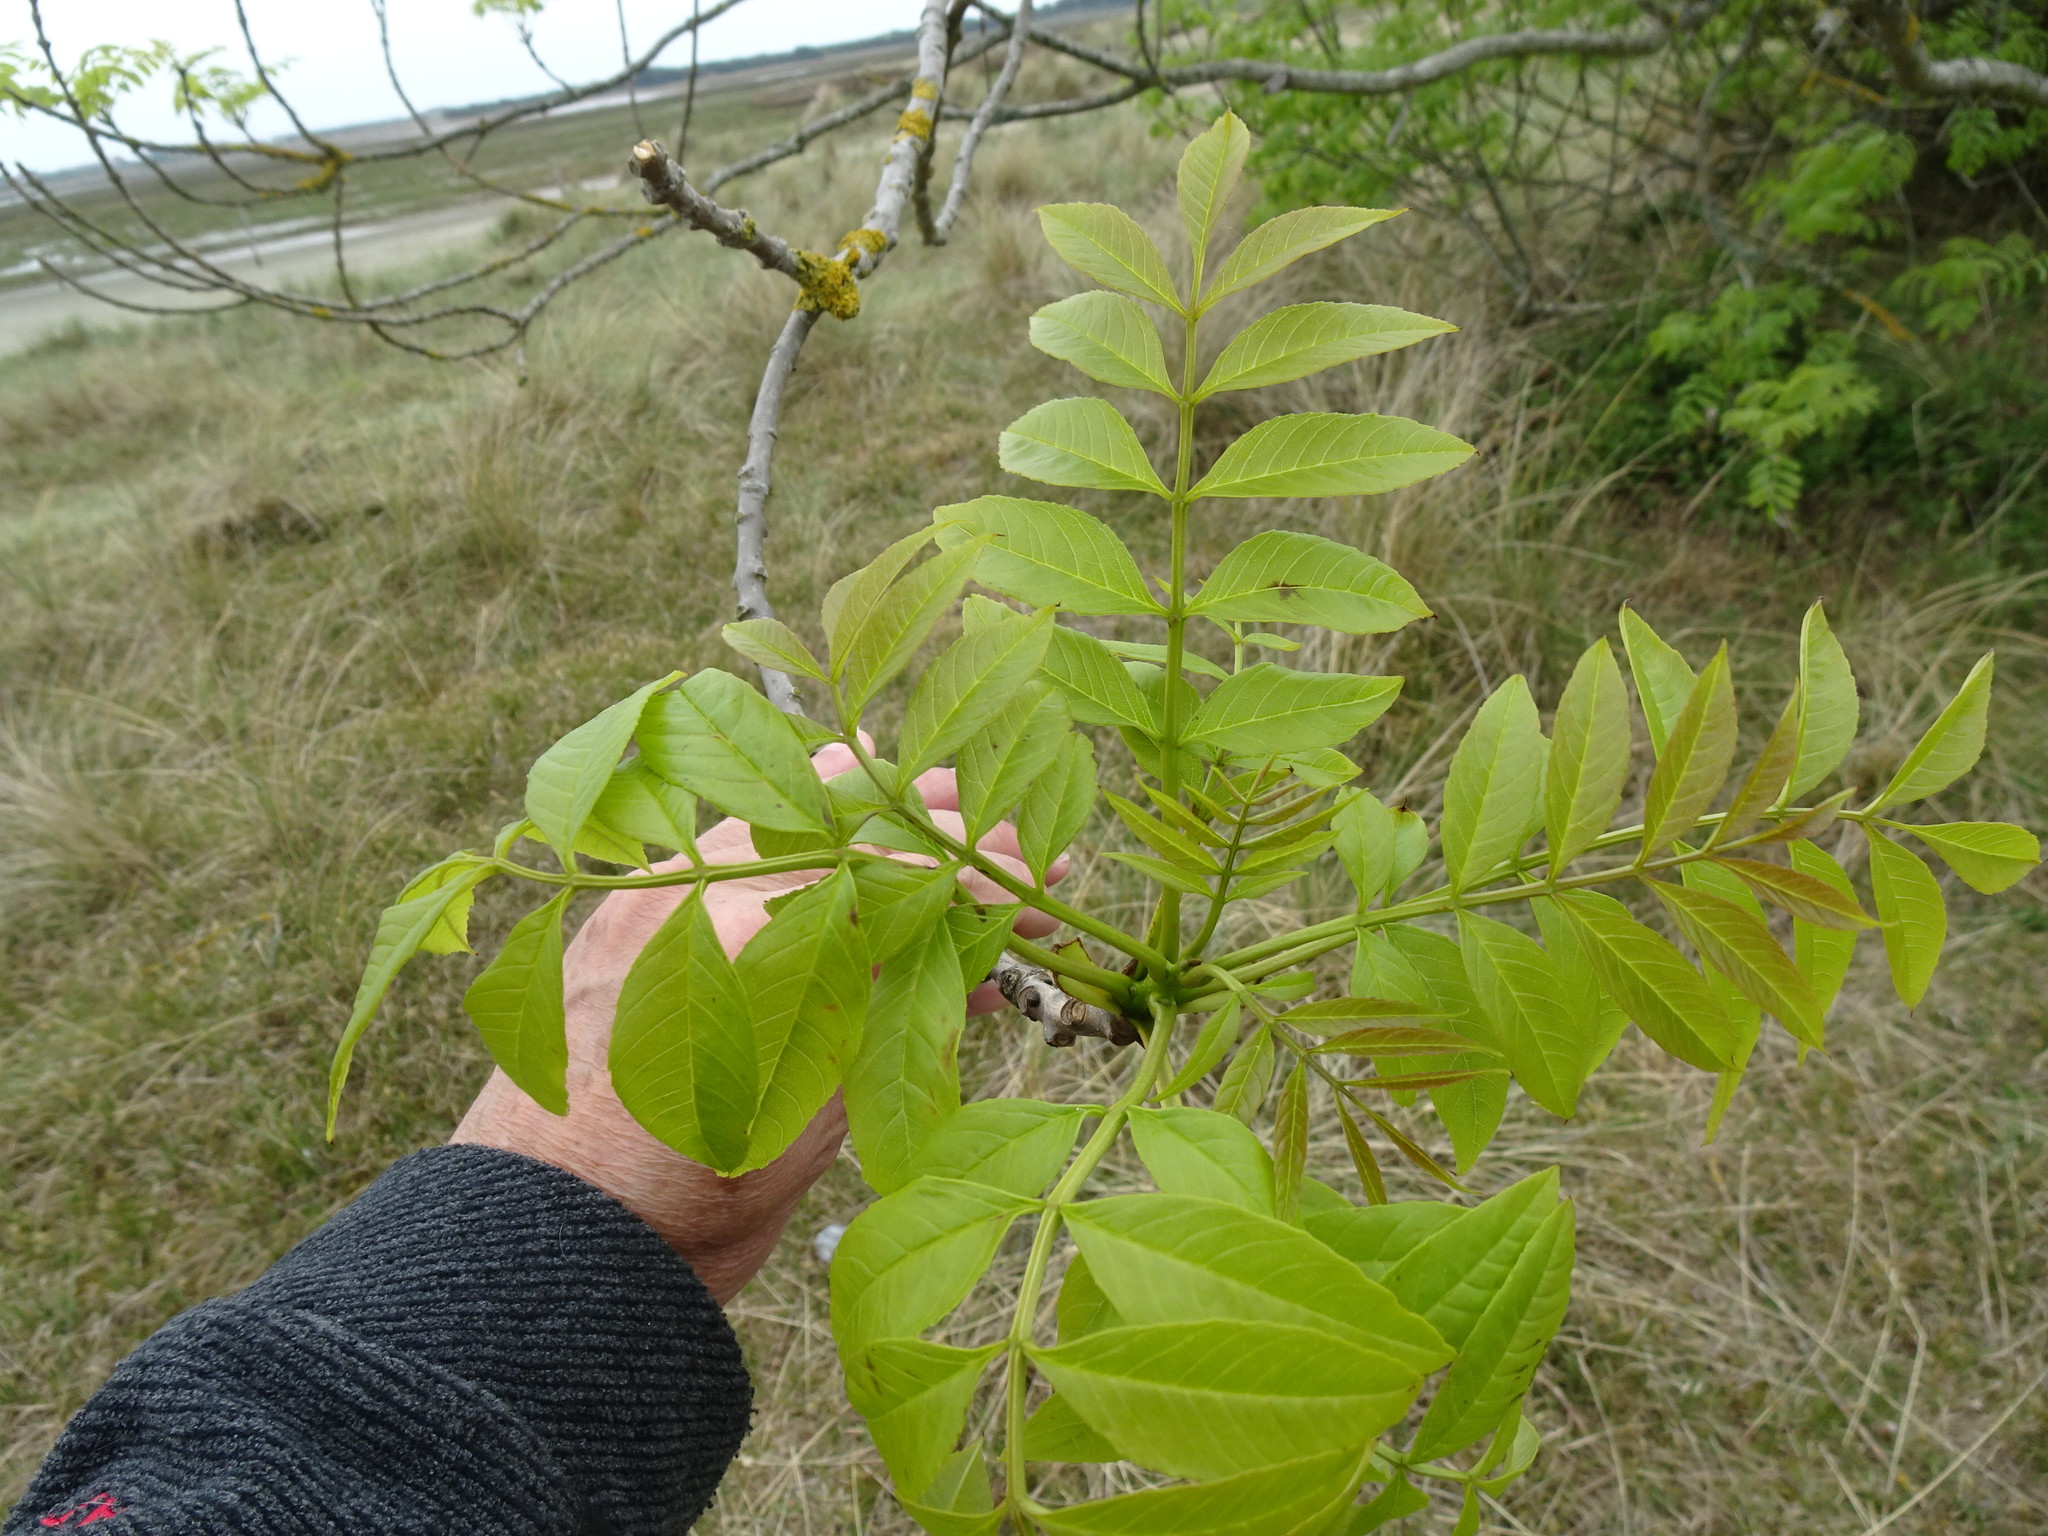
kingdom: Plantae
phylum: Tracheophyta
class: Magnoliopsida
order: Lamiales
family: Oleaceae
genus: Fraxinus
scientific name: Fraxinus excelsior
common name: European ash
